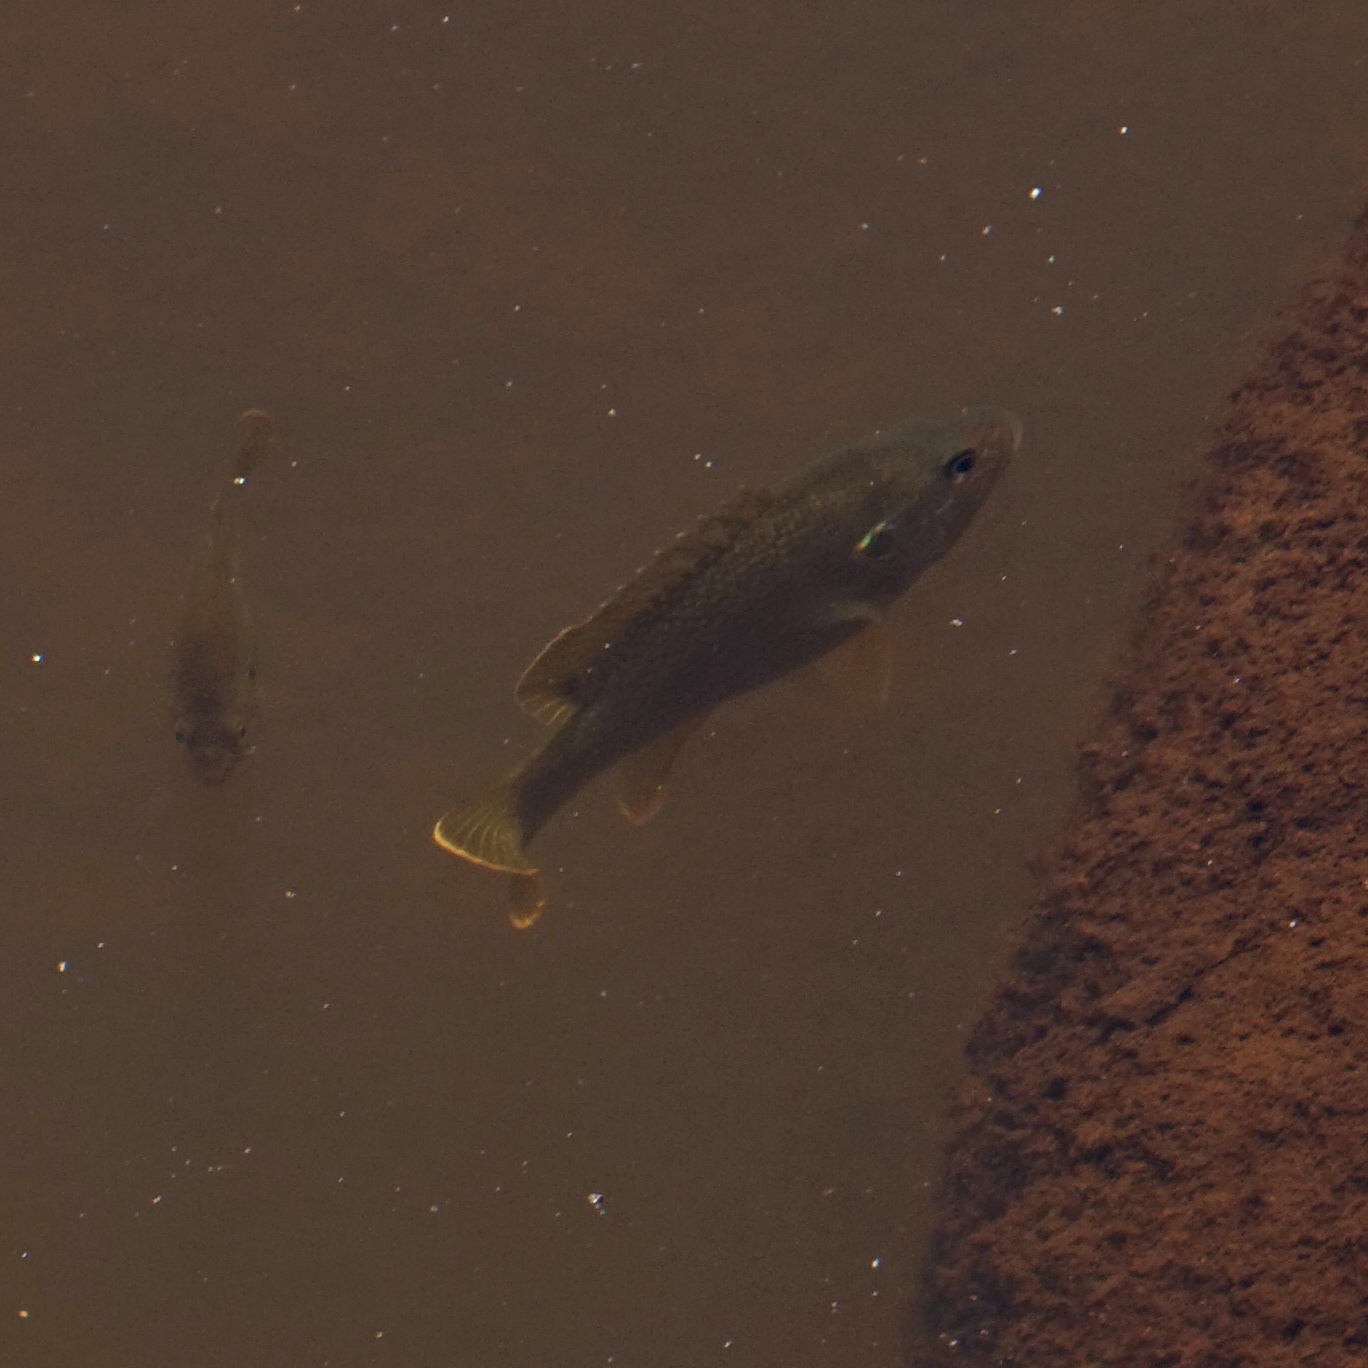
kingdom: Animalia
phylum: Chordata
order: Perciformes
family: Centrarchidae
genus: Lepomis
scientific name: Lepomis cyanellus
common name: Green sunfish
